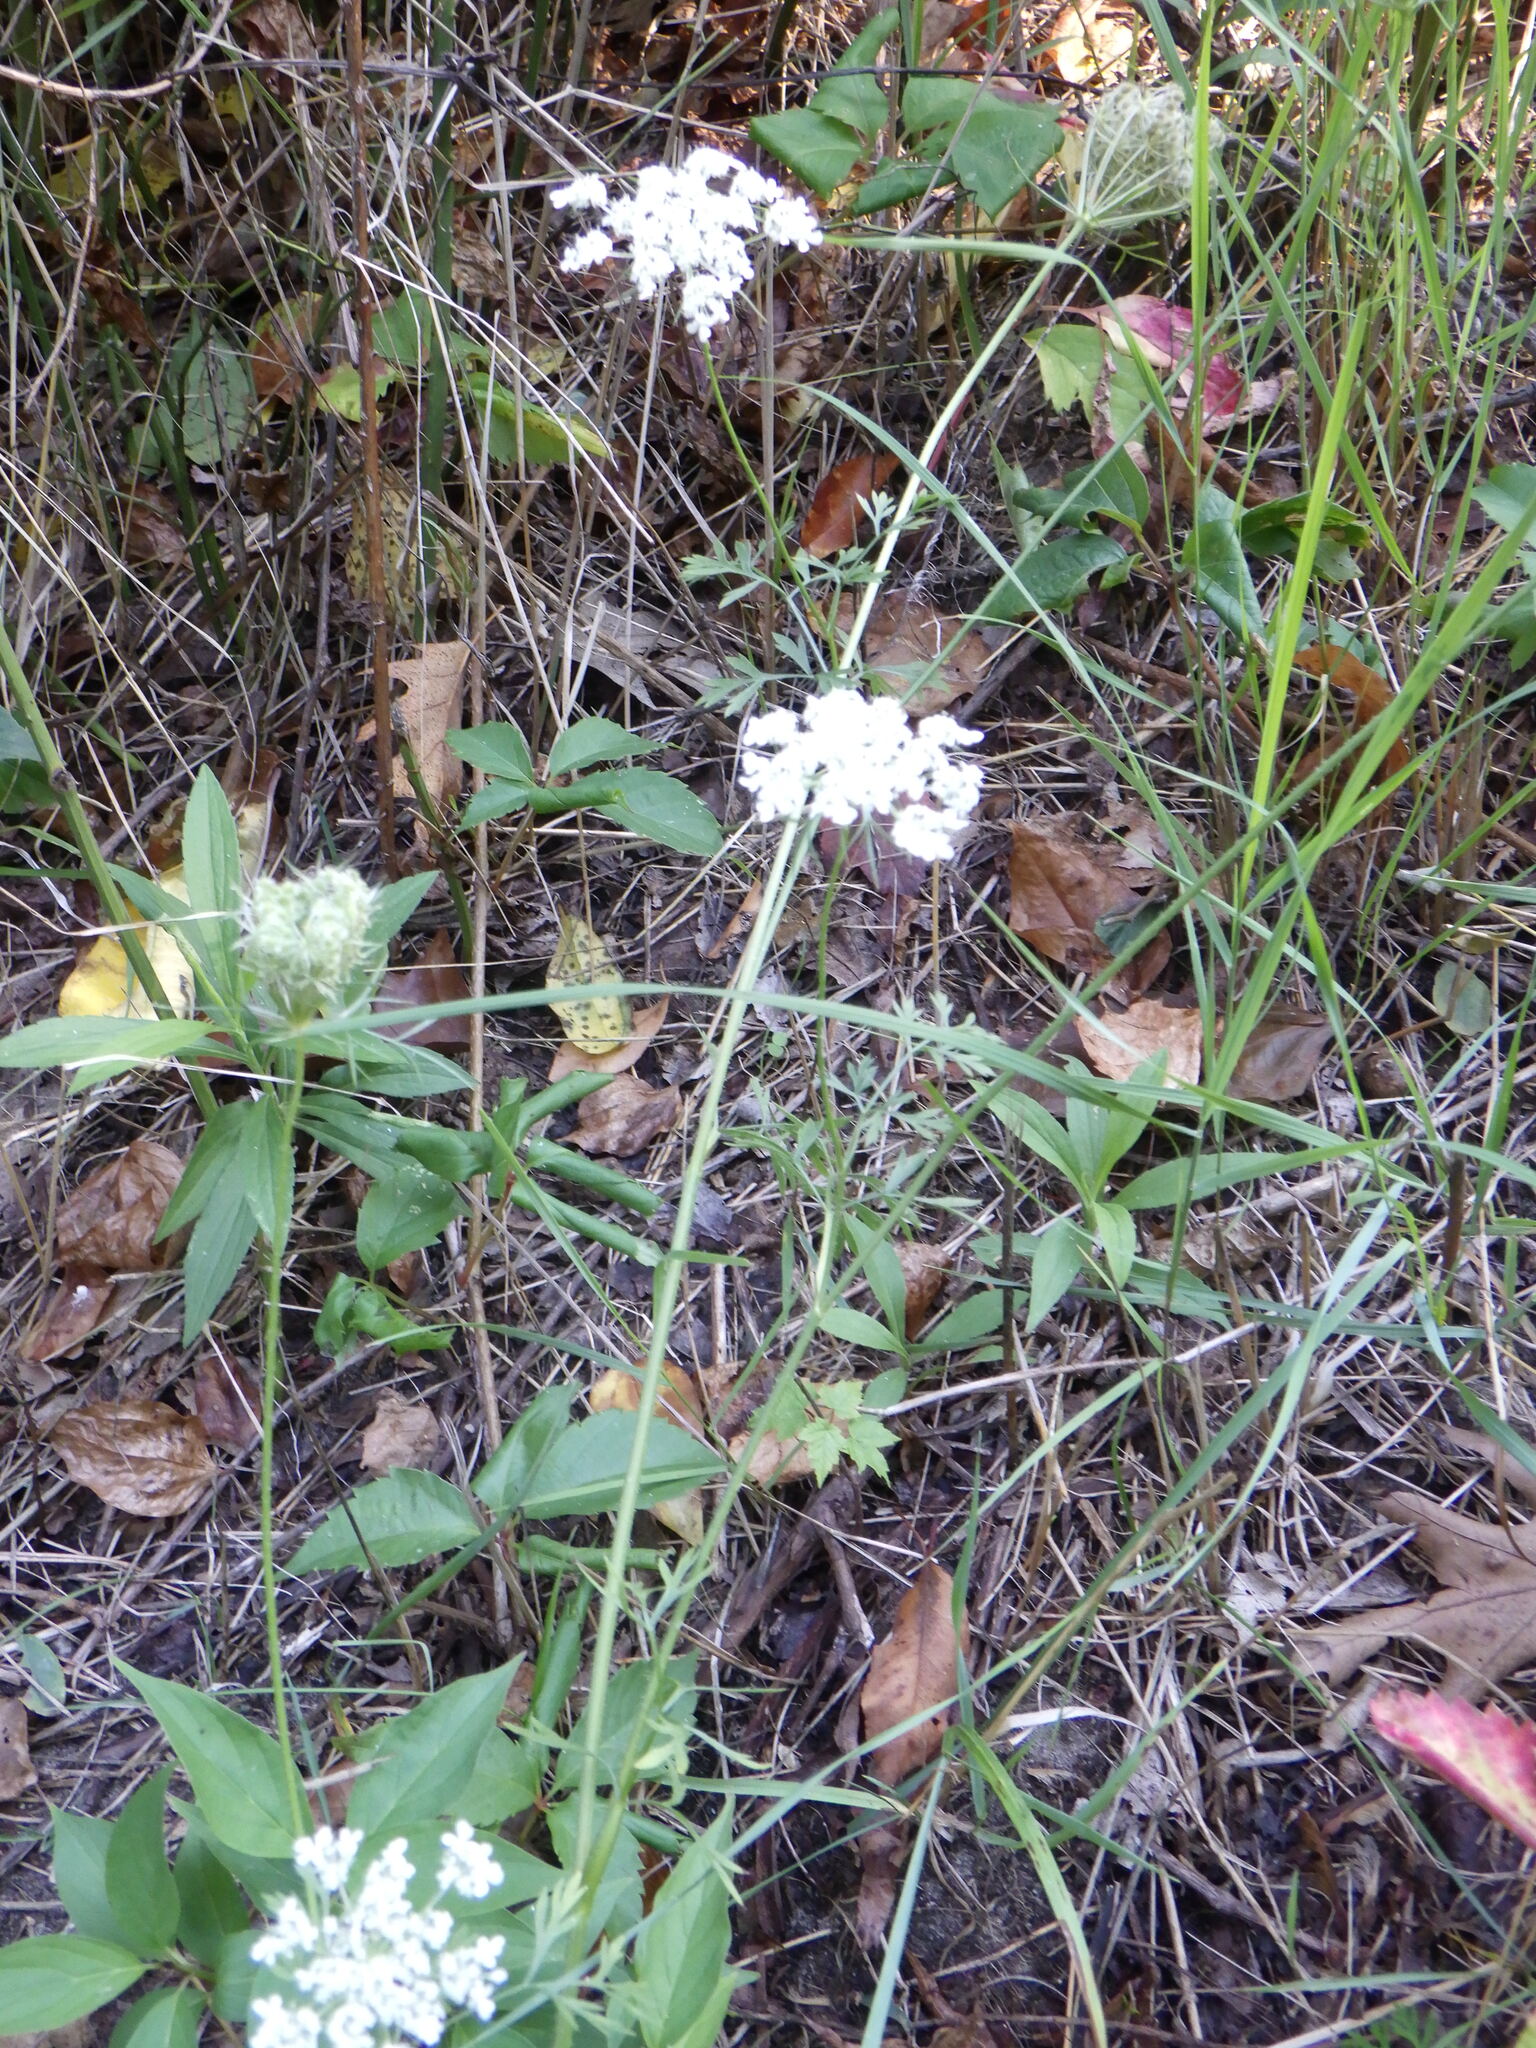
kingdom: Plantae
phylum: Tracheophyta
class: Magnoliopsida
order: Apiales
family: Apiaceae
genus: Daucus
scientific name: Daucus carota
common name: Wild carrot
